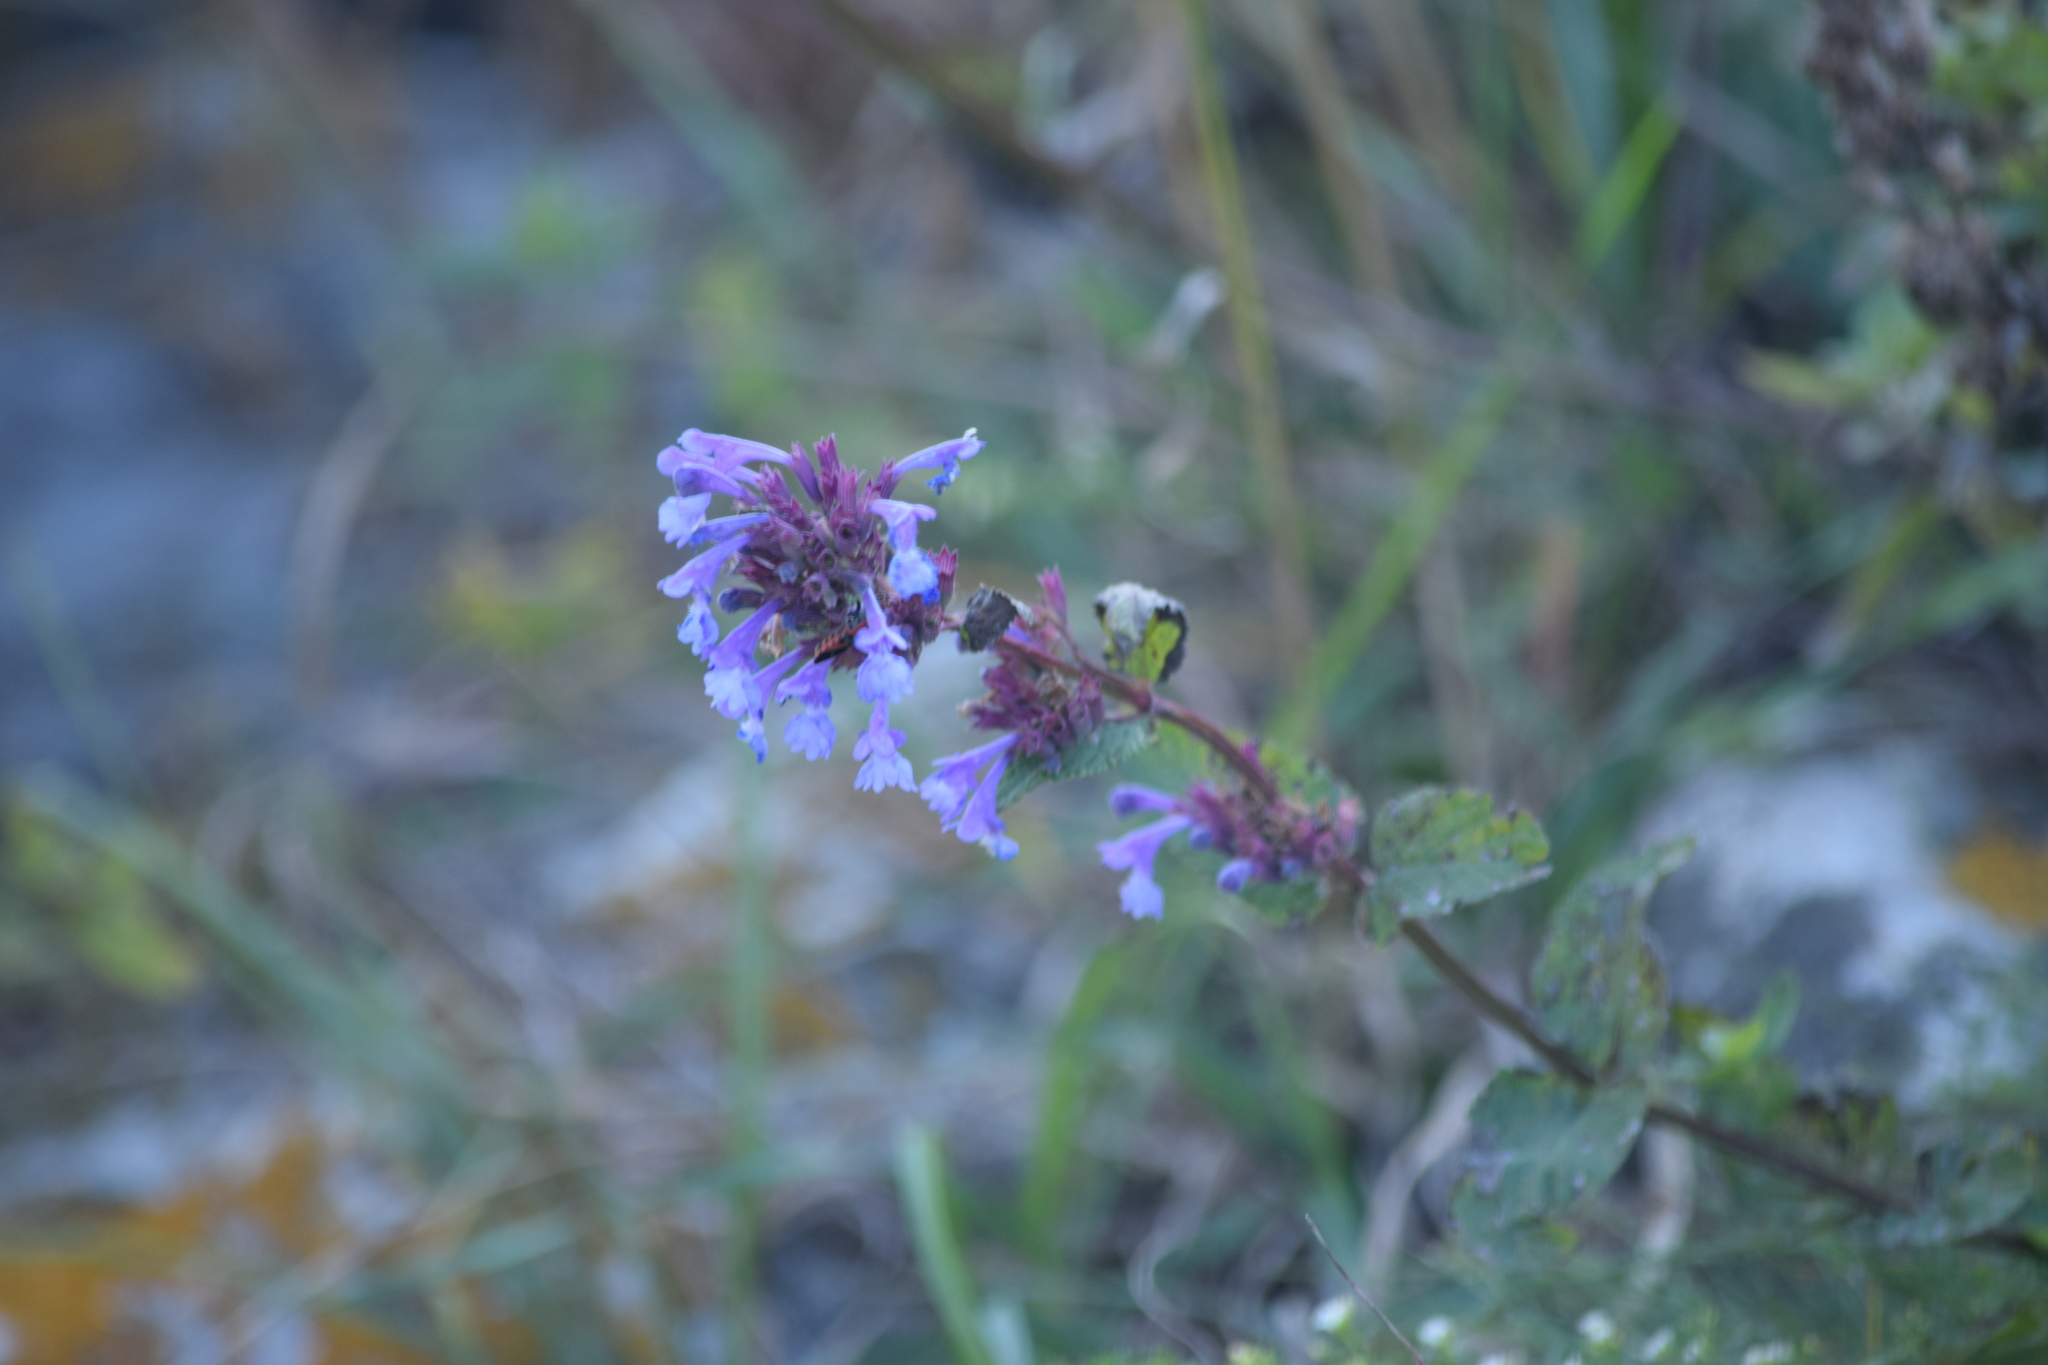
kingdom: Plantae
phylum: Tracheophyta
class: Magnoliopsida
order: Lamiales
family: Lamiaceae
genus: Nepeta
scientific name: Nepeta grandiflora
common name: Caucasus catmint
